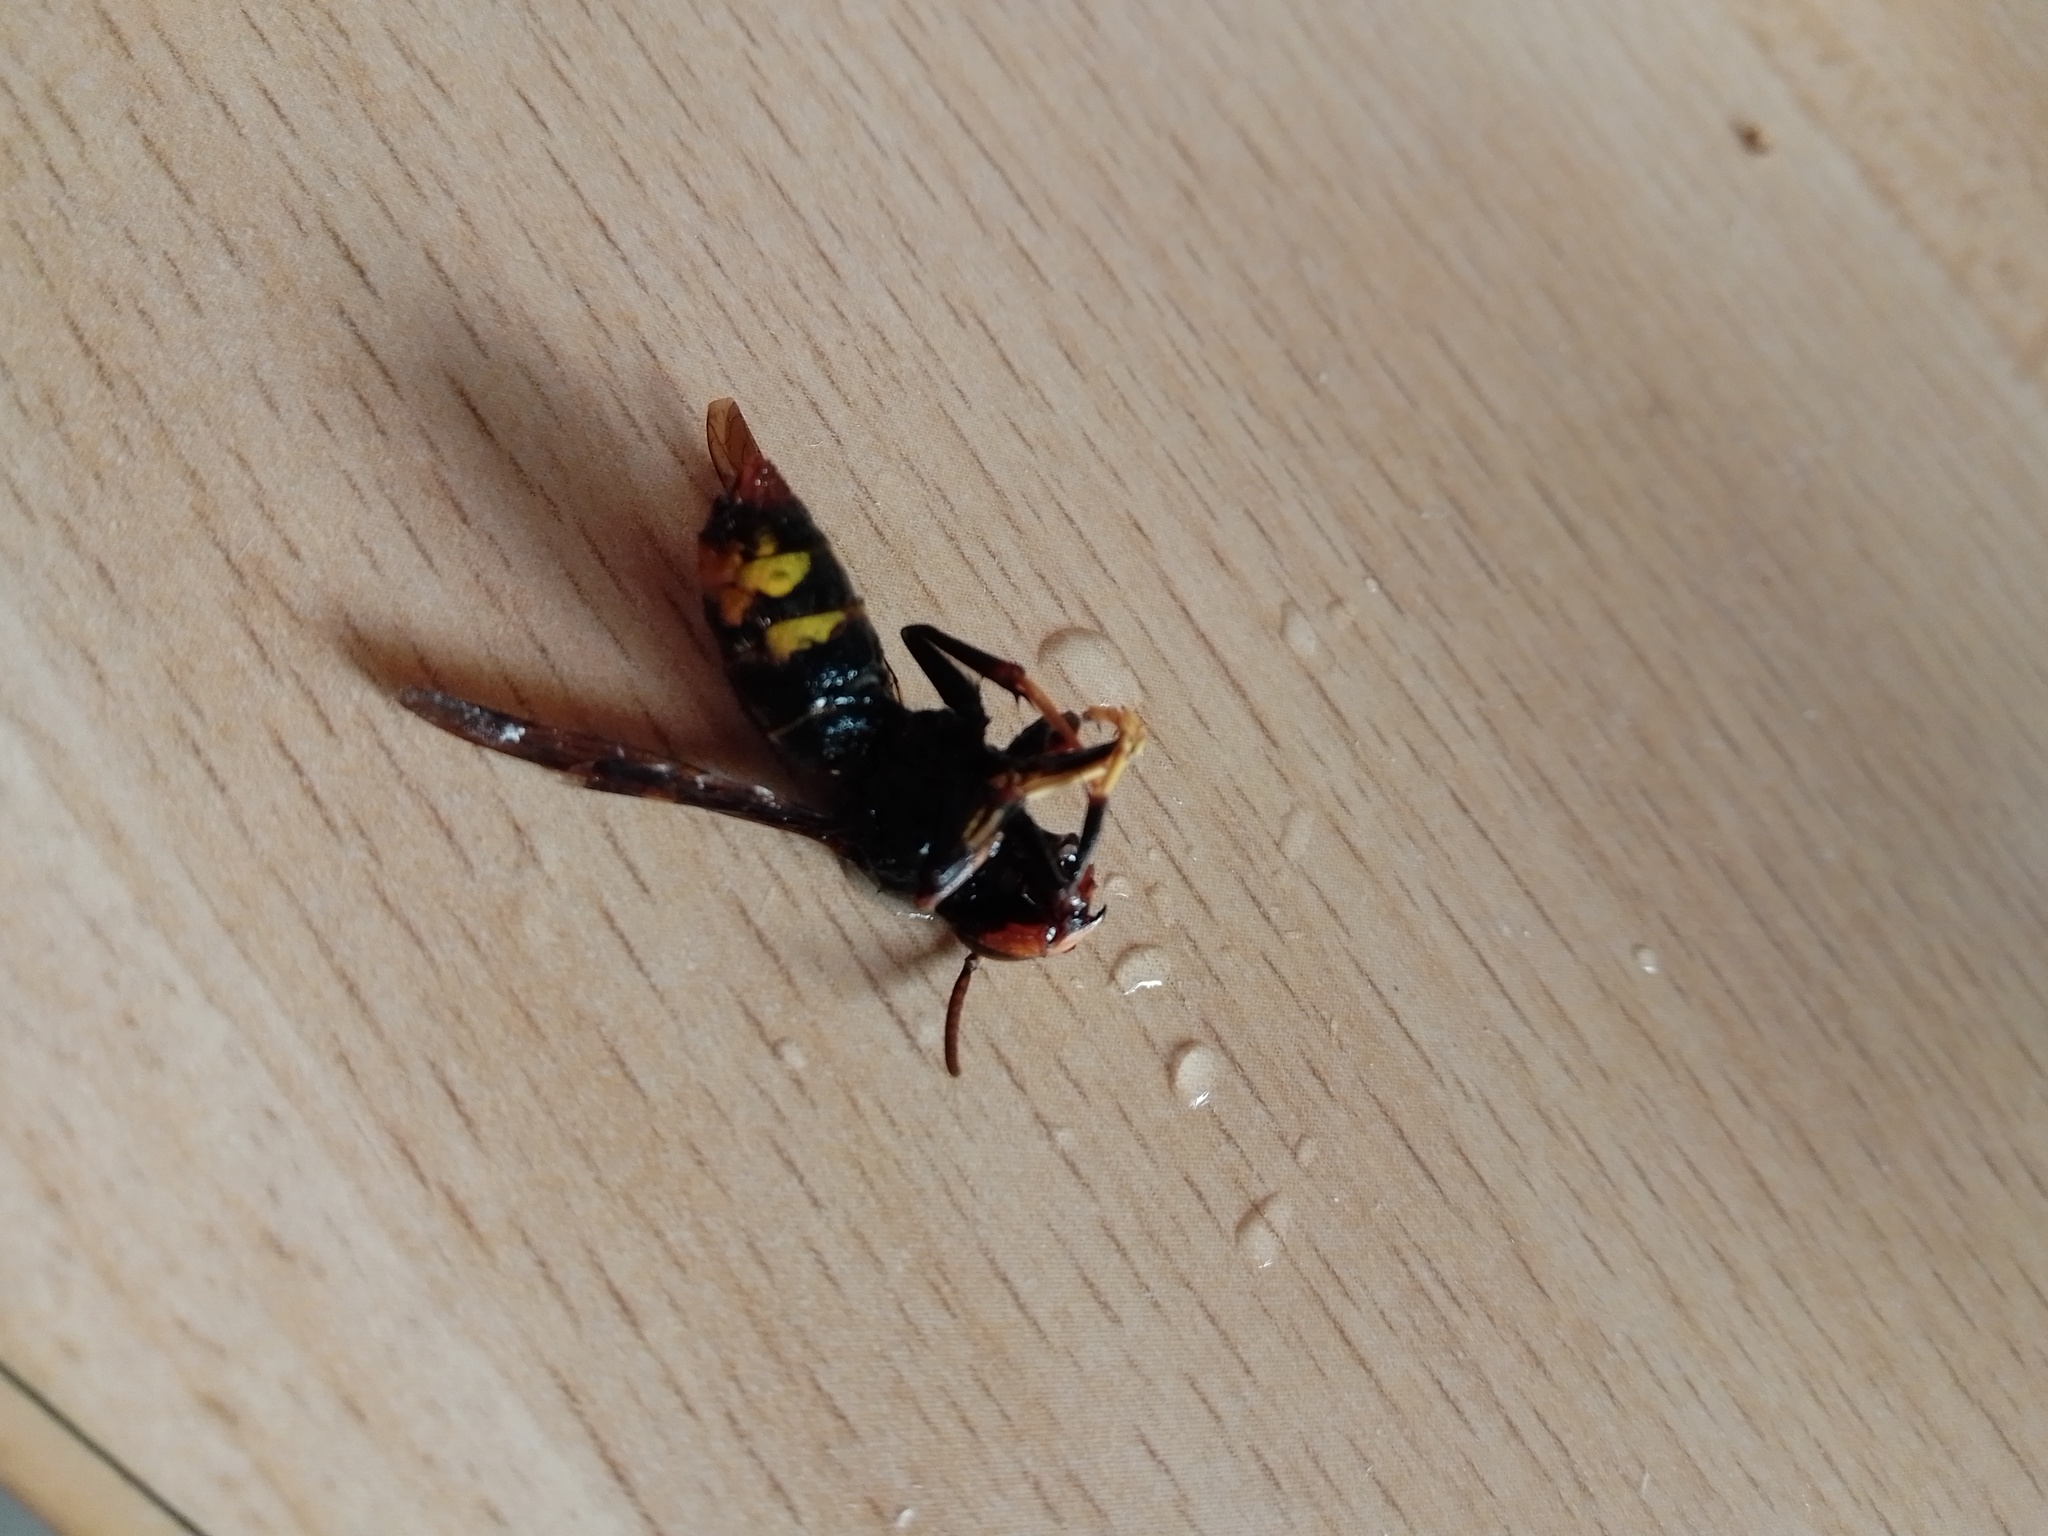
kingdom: Animalia
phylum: Arthropoda
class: Insecta
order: Hymenoptera
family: Vespidae
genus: Vespa
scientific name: Vespa velutina
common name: Asian hornet
